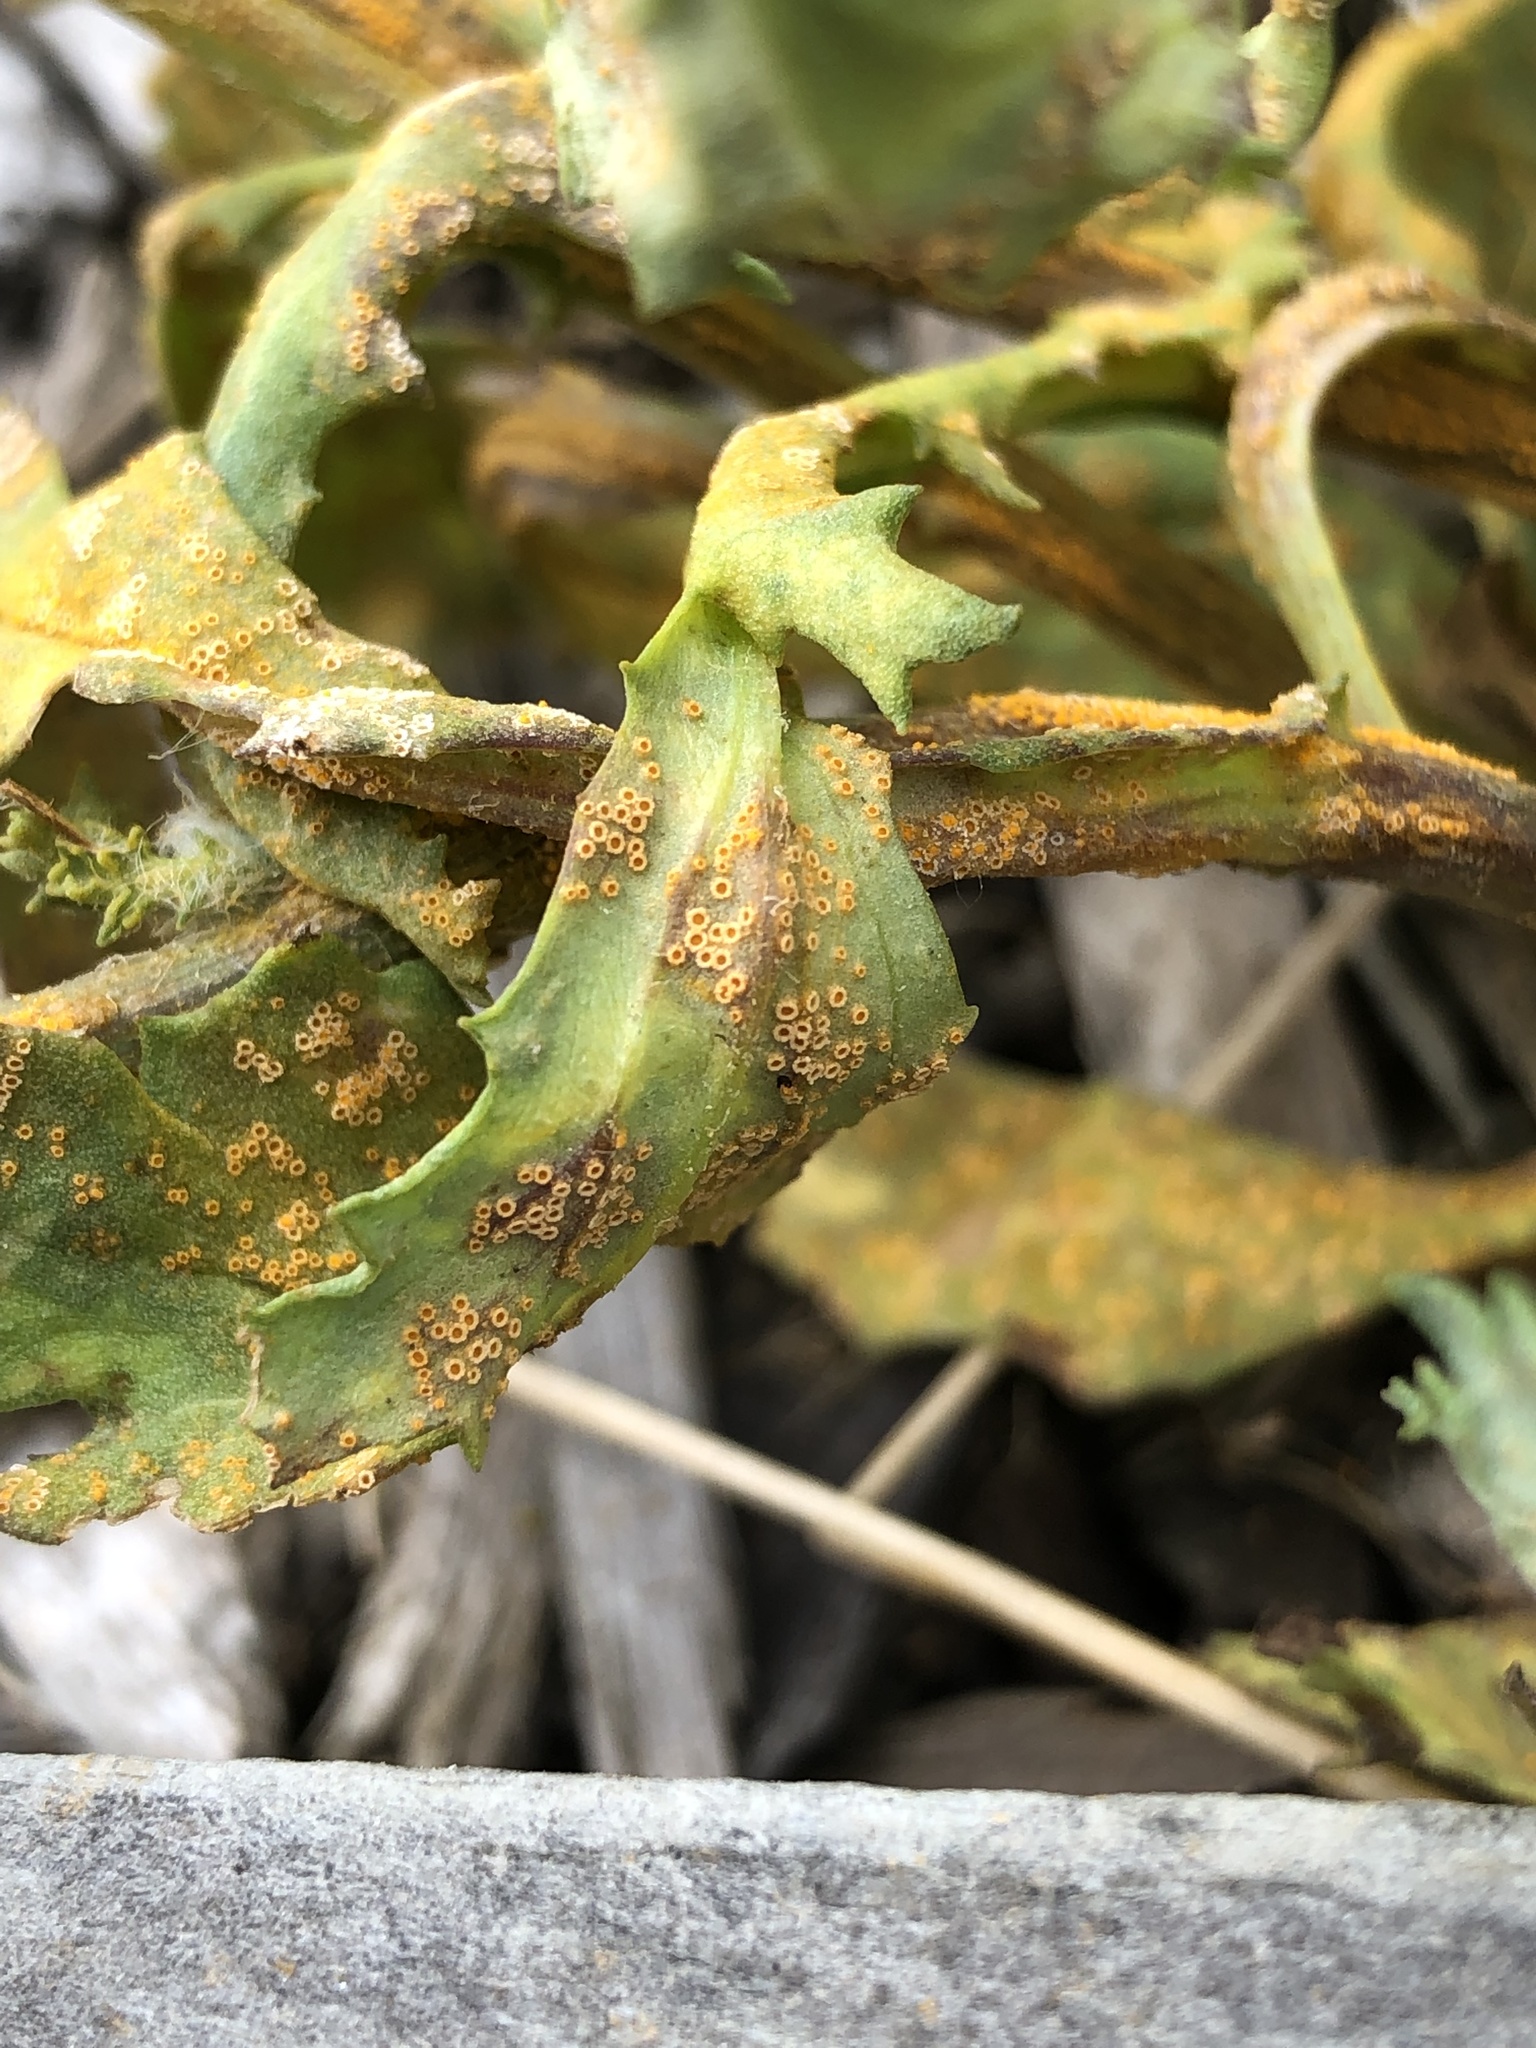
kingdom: Fungi
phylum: Basidiomycota
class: Pucciniomycetes
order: Pucciniales
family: Pucciniaceae
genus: Puccinia
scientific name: Puccinia lagenophorae
